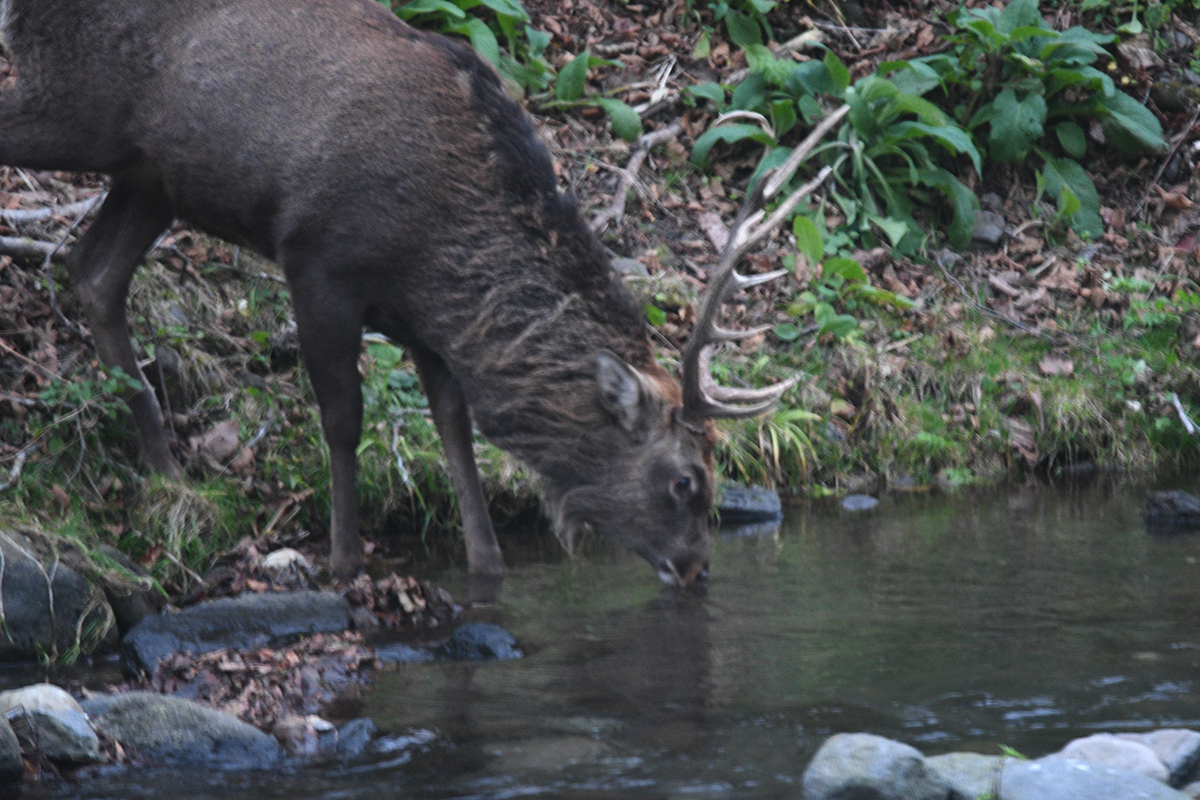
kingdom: Animalia
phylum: Chordata
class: Mammalia
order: Artiodactyla
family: Cervidae
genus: Cervus
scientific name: Cervus nippon
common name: Sika deer
